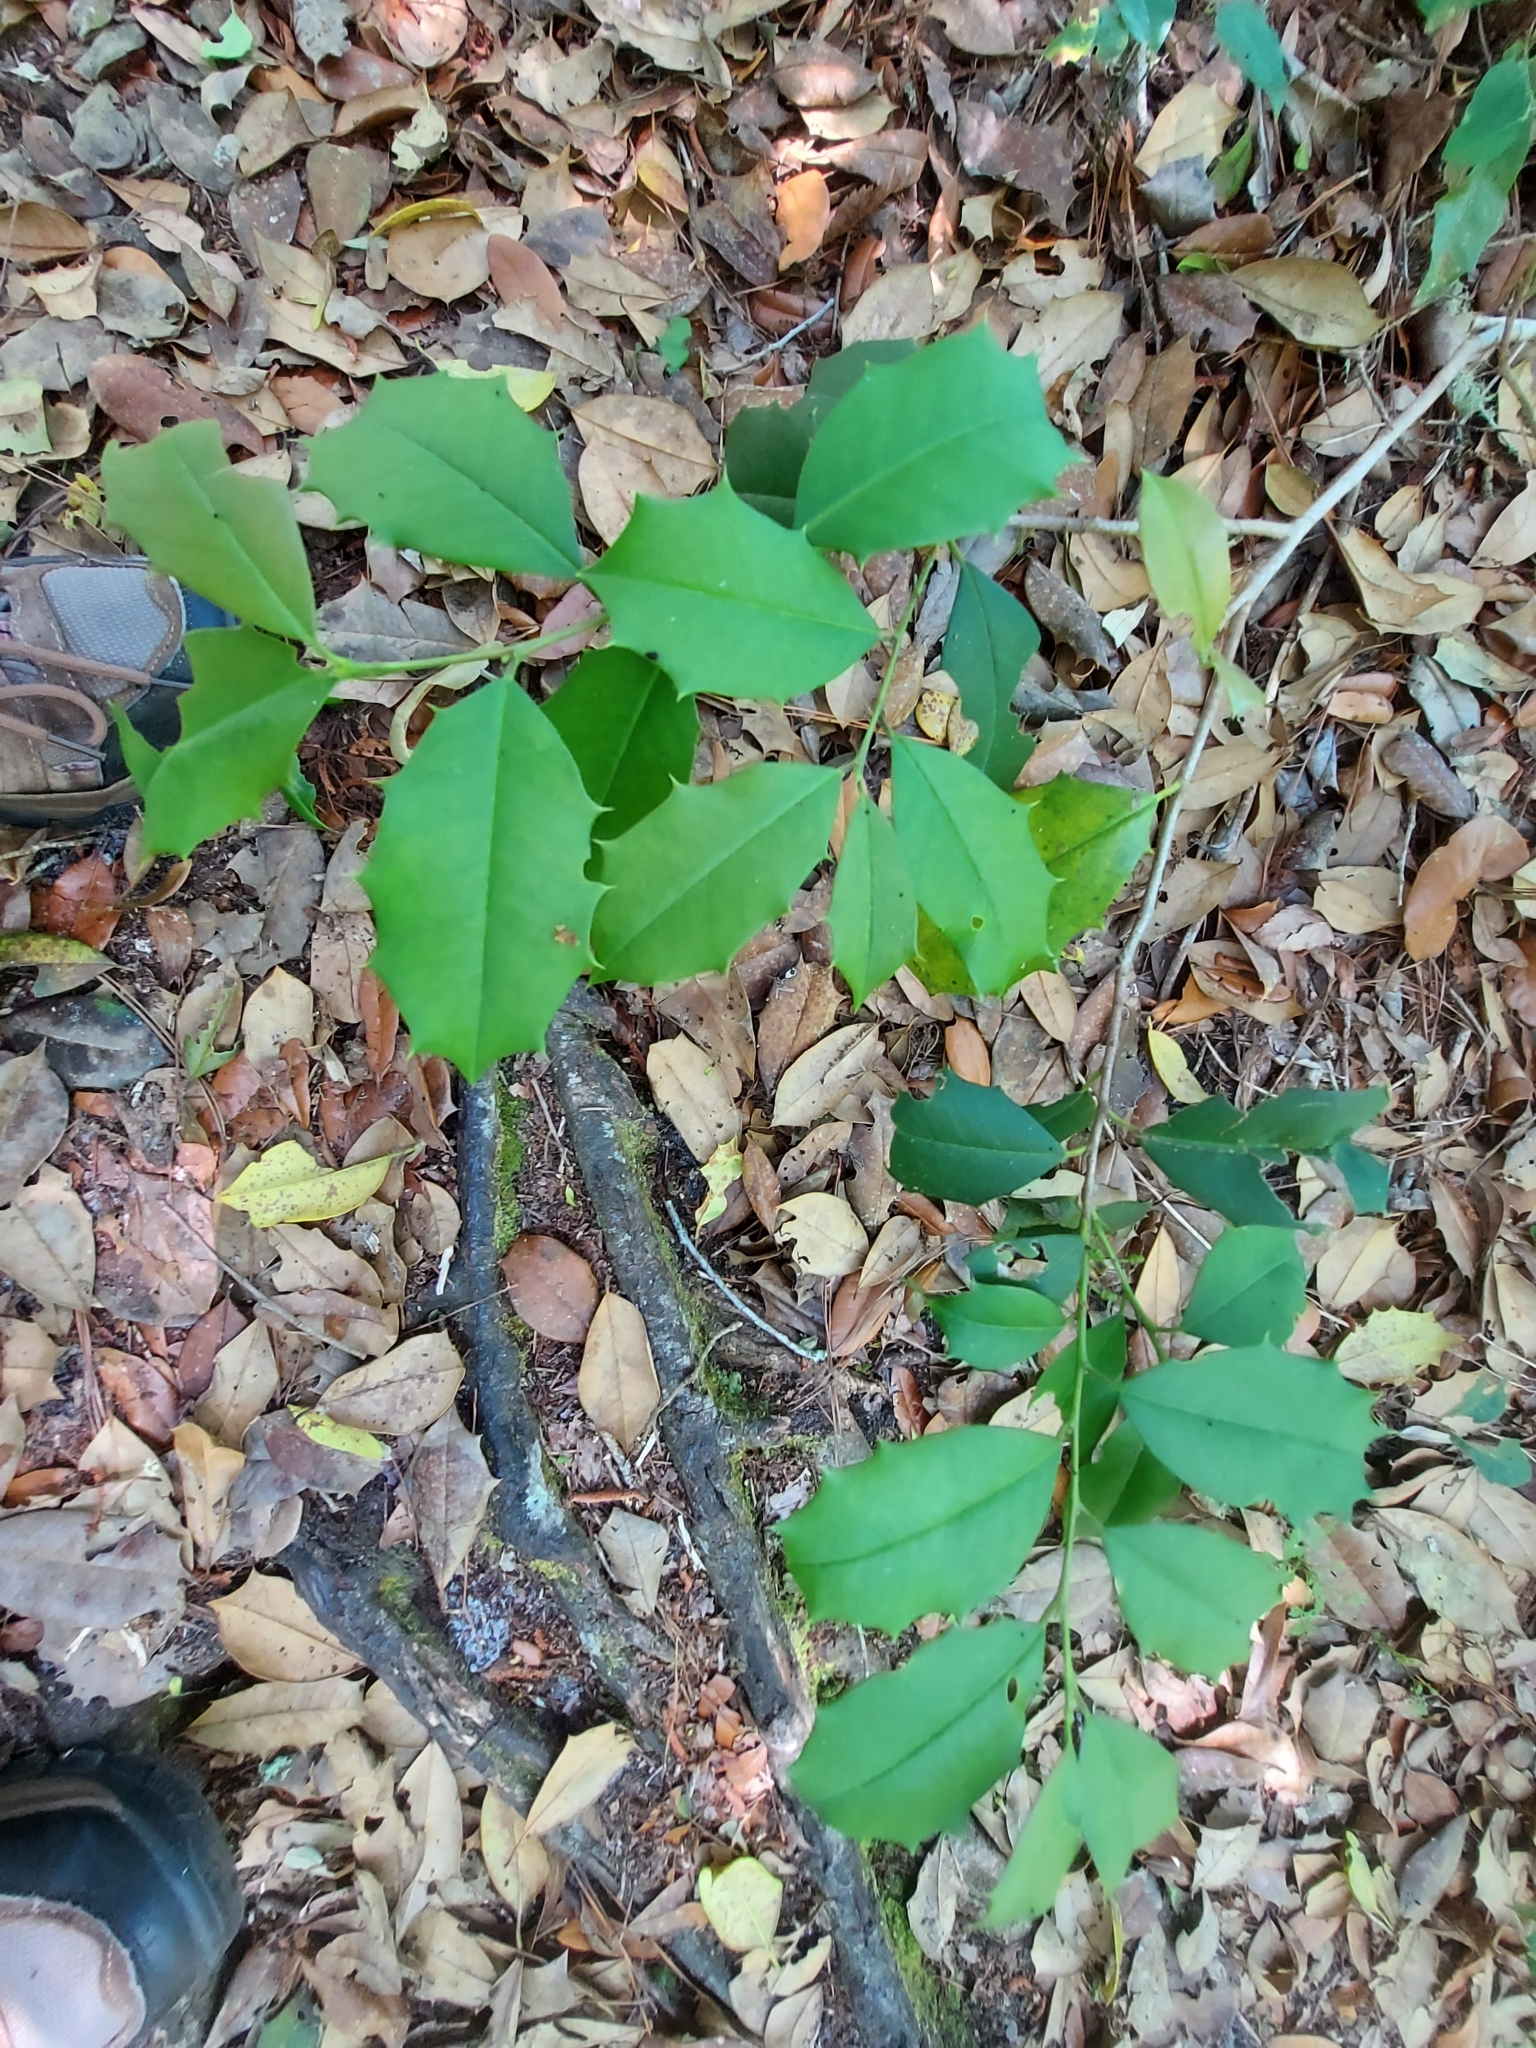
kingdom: Plantae
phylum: Tracheophyta
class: Magnoliopsida
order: Aquifoliales
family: Aquifoliaceae
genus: Ilex
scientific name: Ilex opaca
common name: American holly
